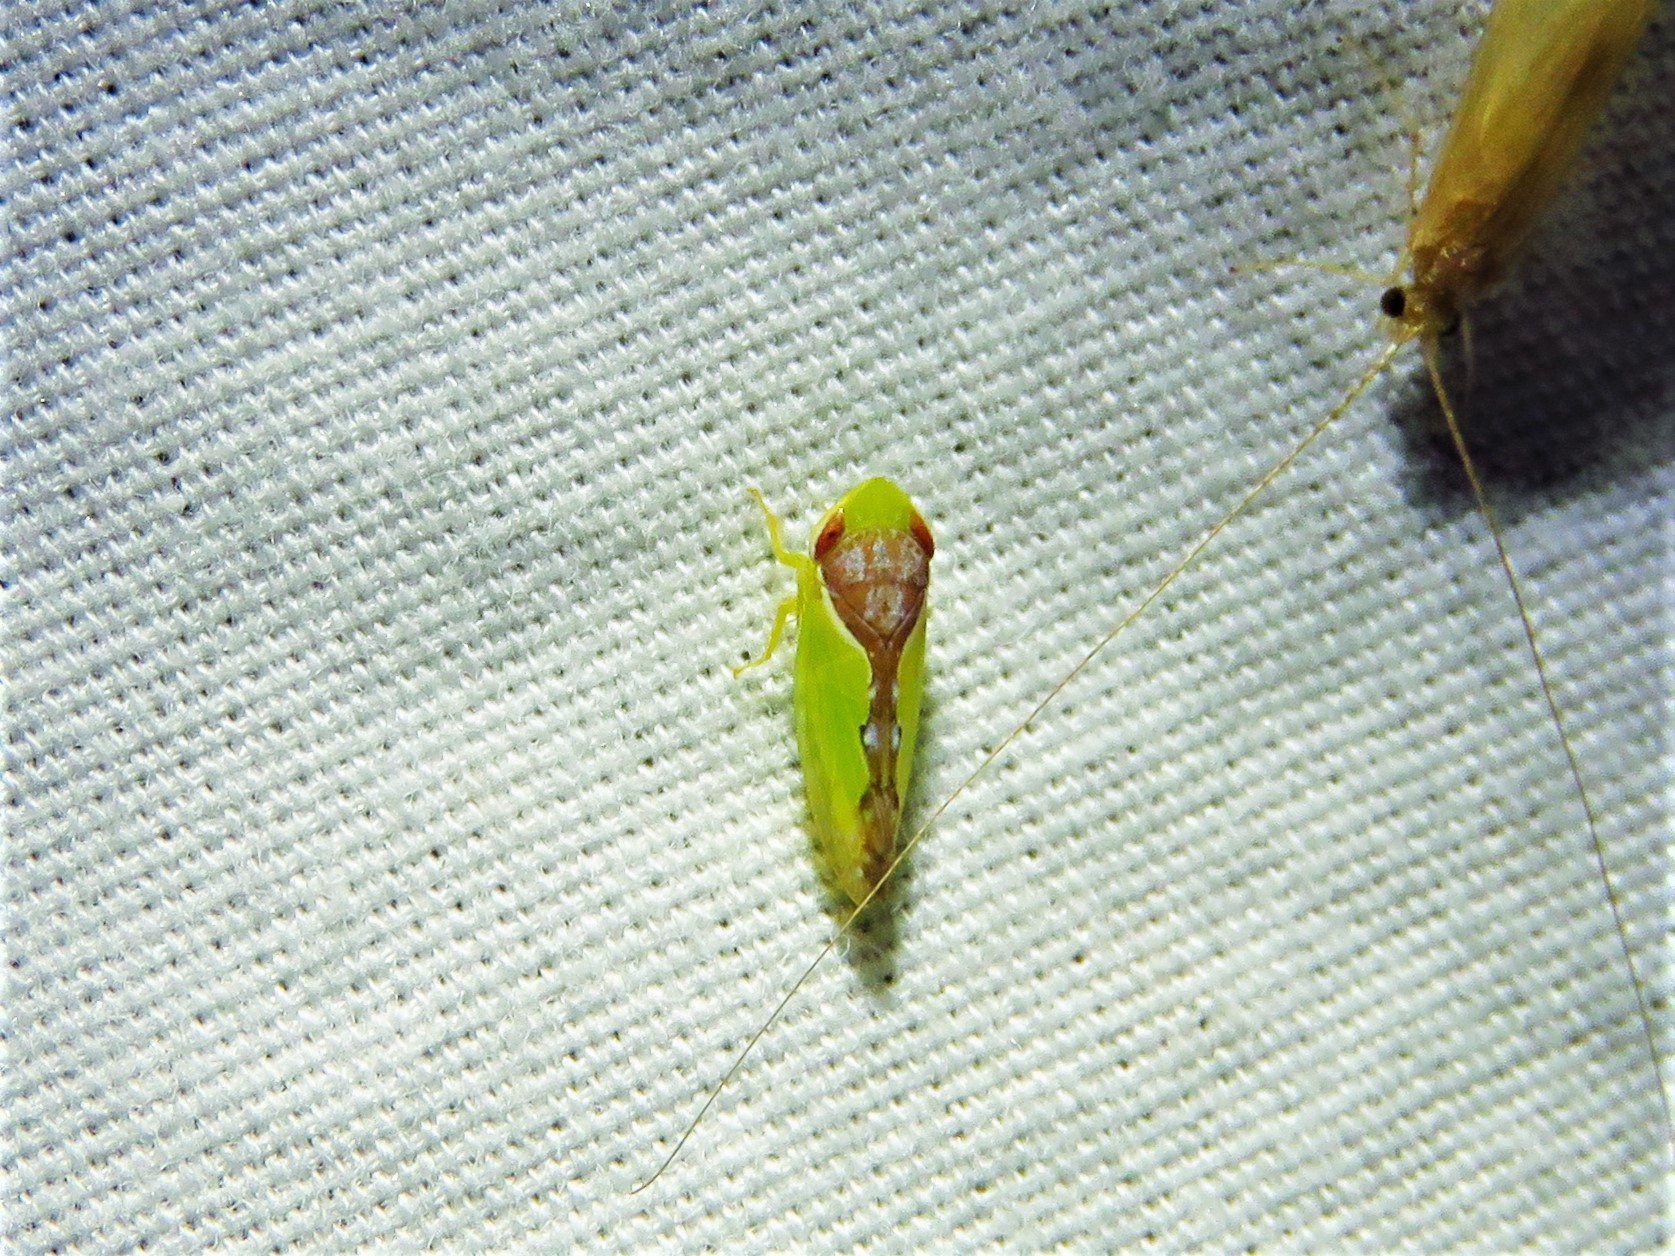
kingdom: Animalia
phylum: Arthropoda
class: Insecta
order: Hemiptera
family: Cicadellidae
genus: Omansobara ing
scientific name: Omansobara ing Omansobara palliolata
